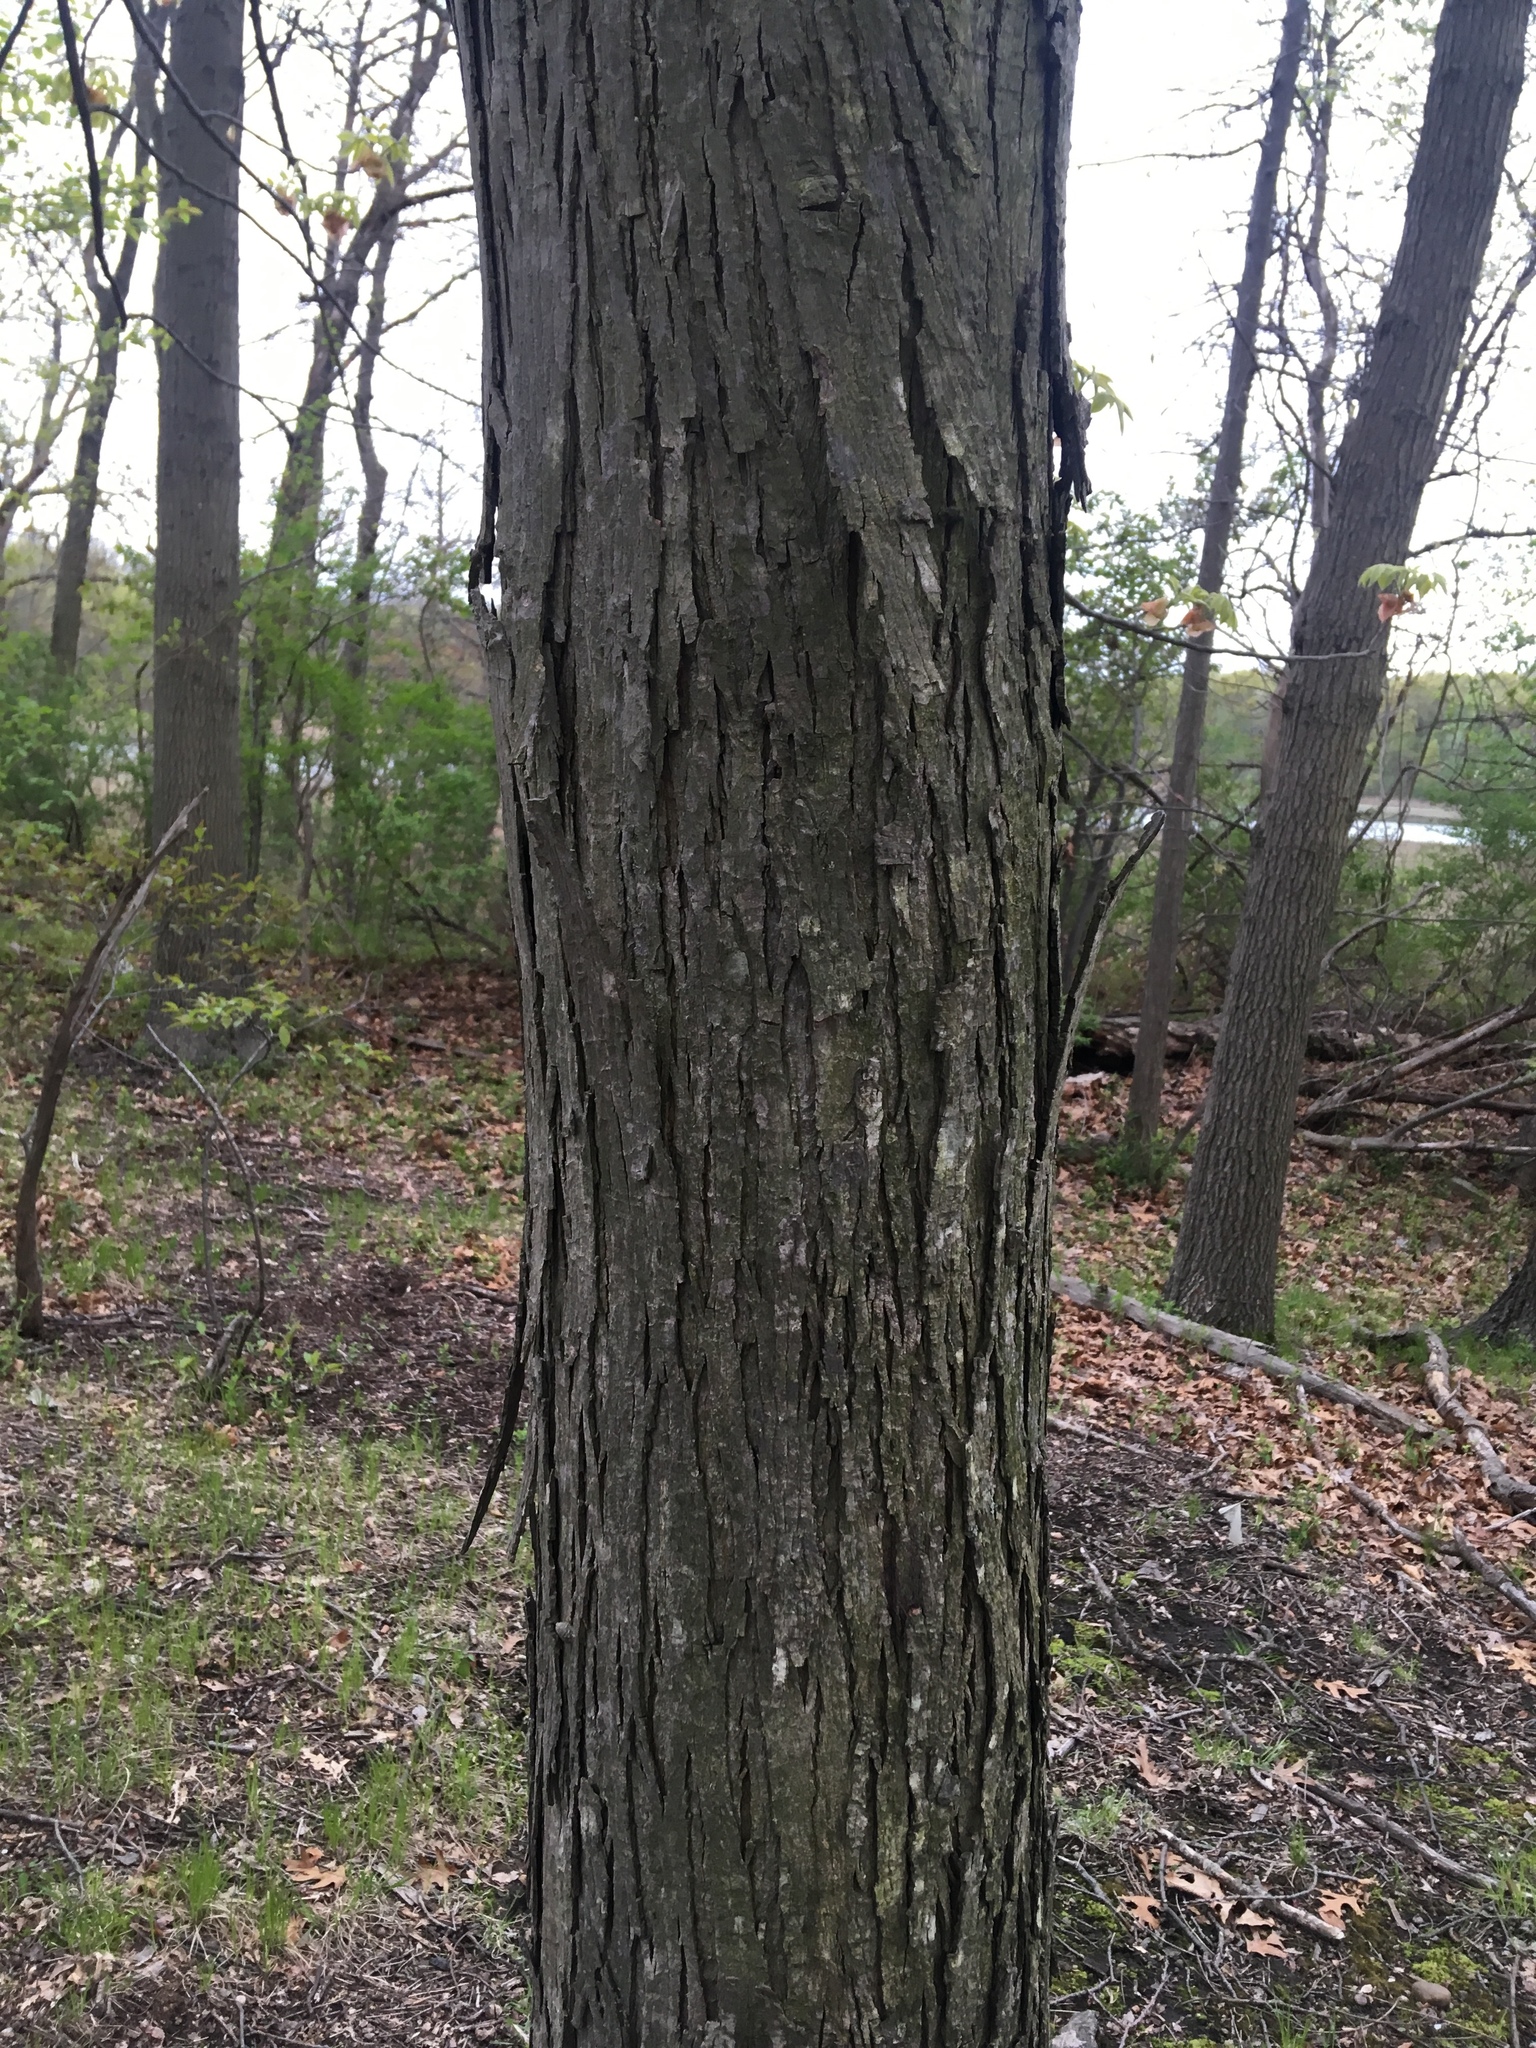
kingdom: Plantae
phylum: Tracheophyta
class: Magnoliopsida
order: Fagales
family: Juglandaceae
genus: Carya
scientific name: Carya ovata
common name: Shagbark hickory
